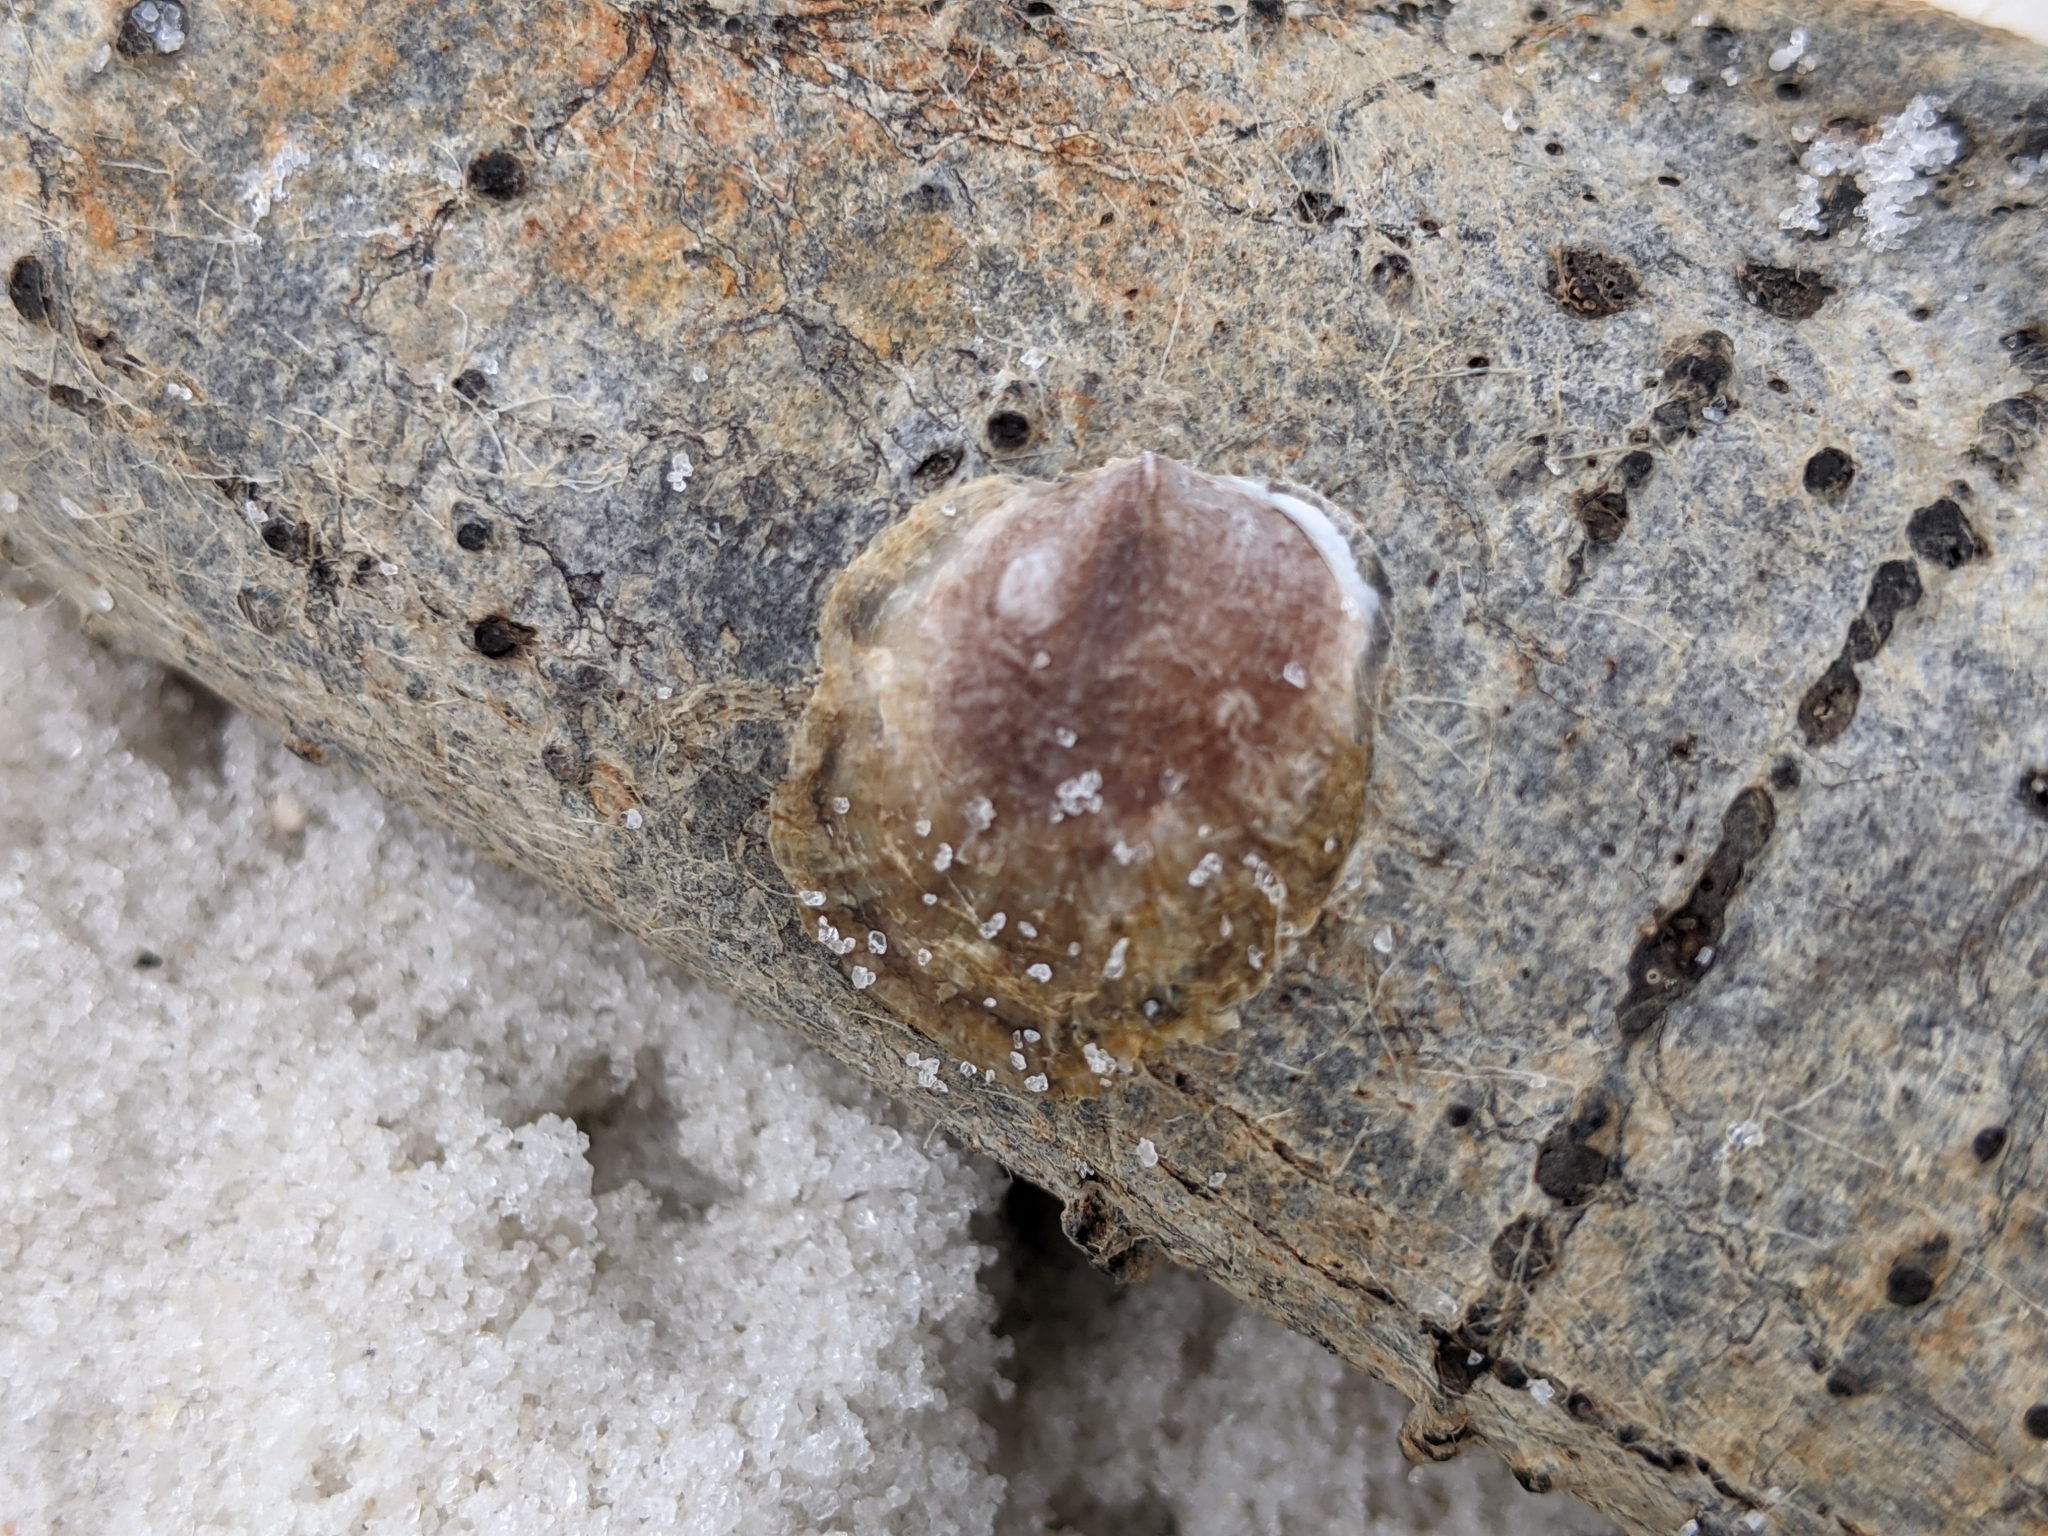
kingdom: Animalia
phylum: Mollusca
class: Bivalvia
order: Pectinida
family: Anomiidae
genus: Anomia
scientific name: Anomia simplex
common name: Common jingle shell
